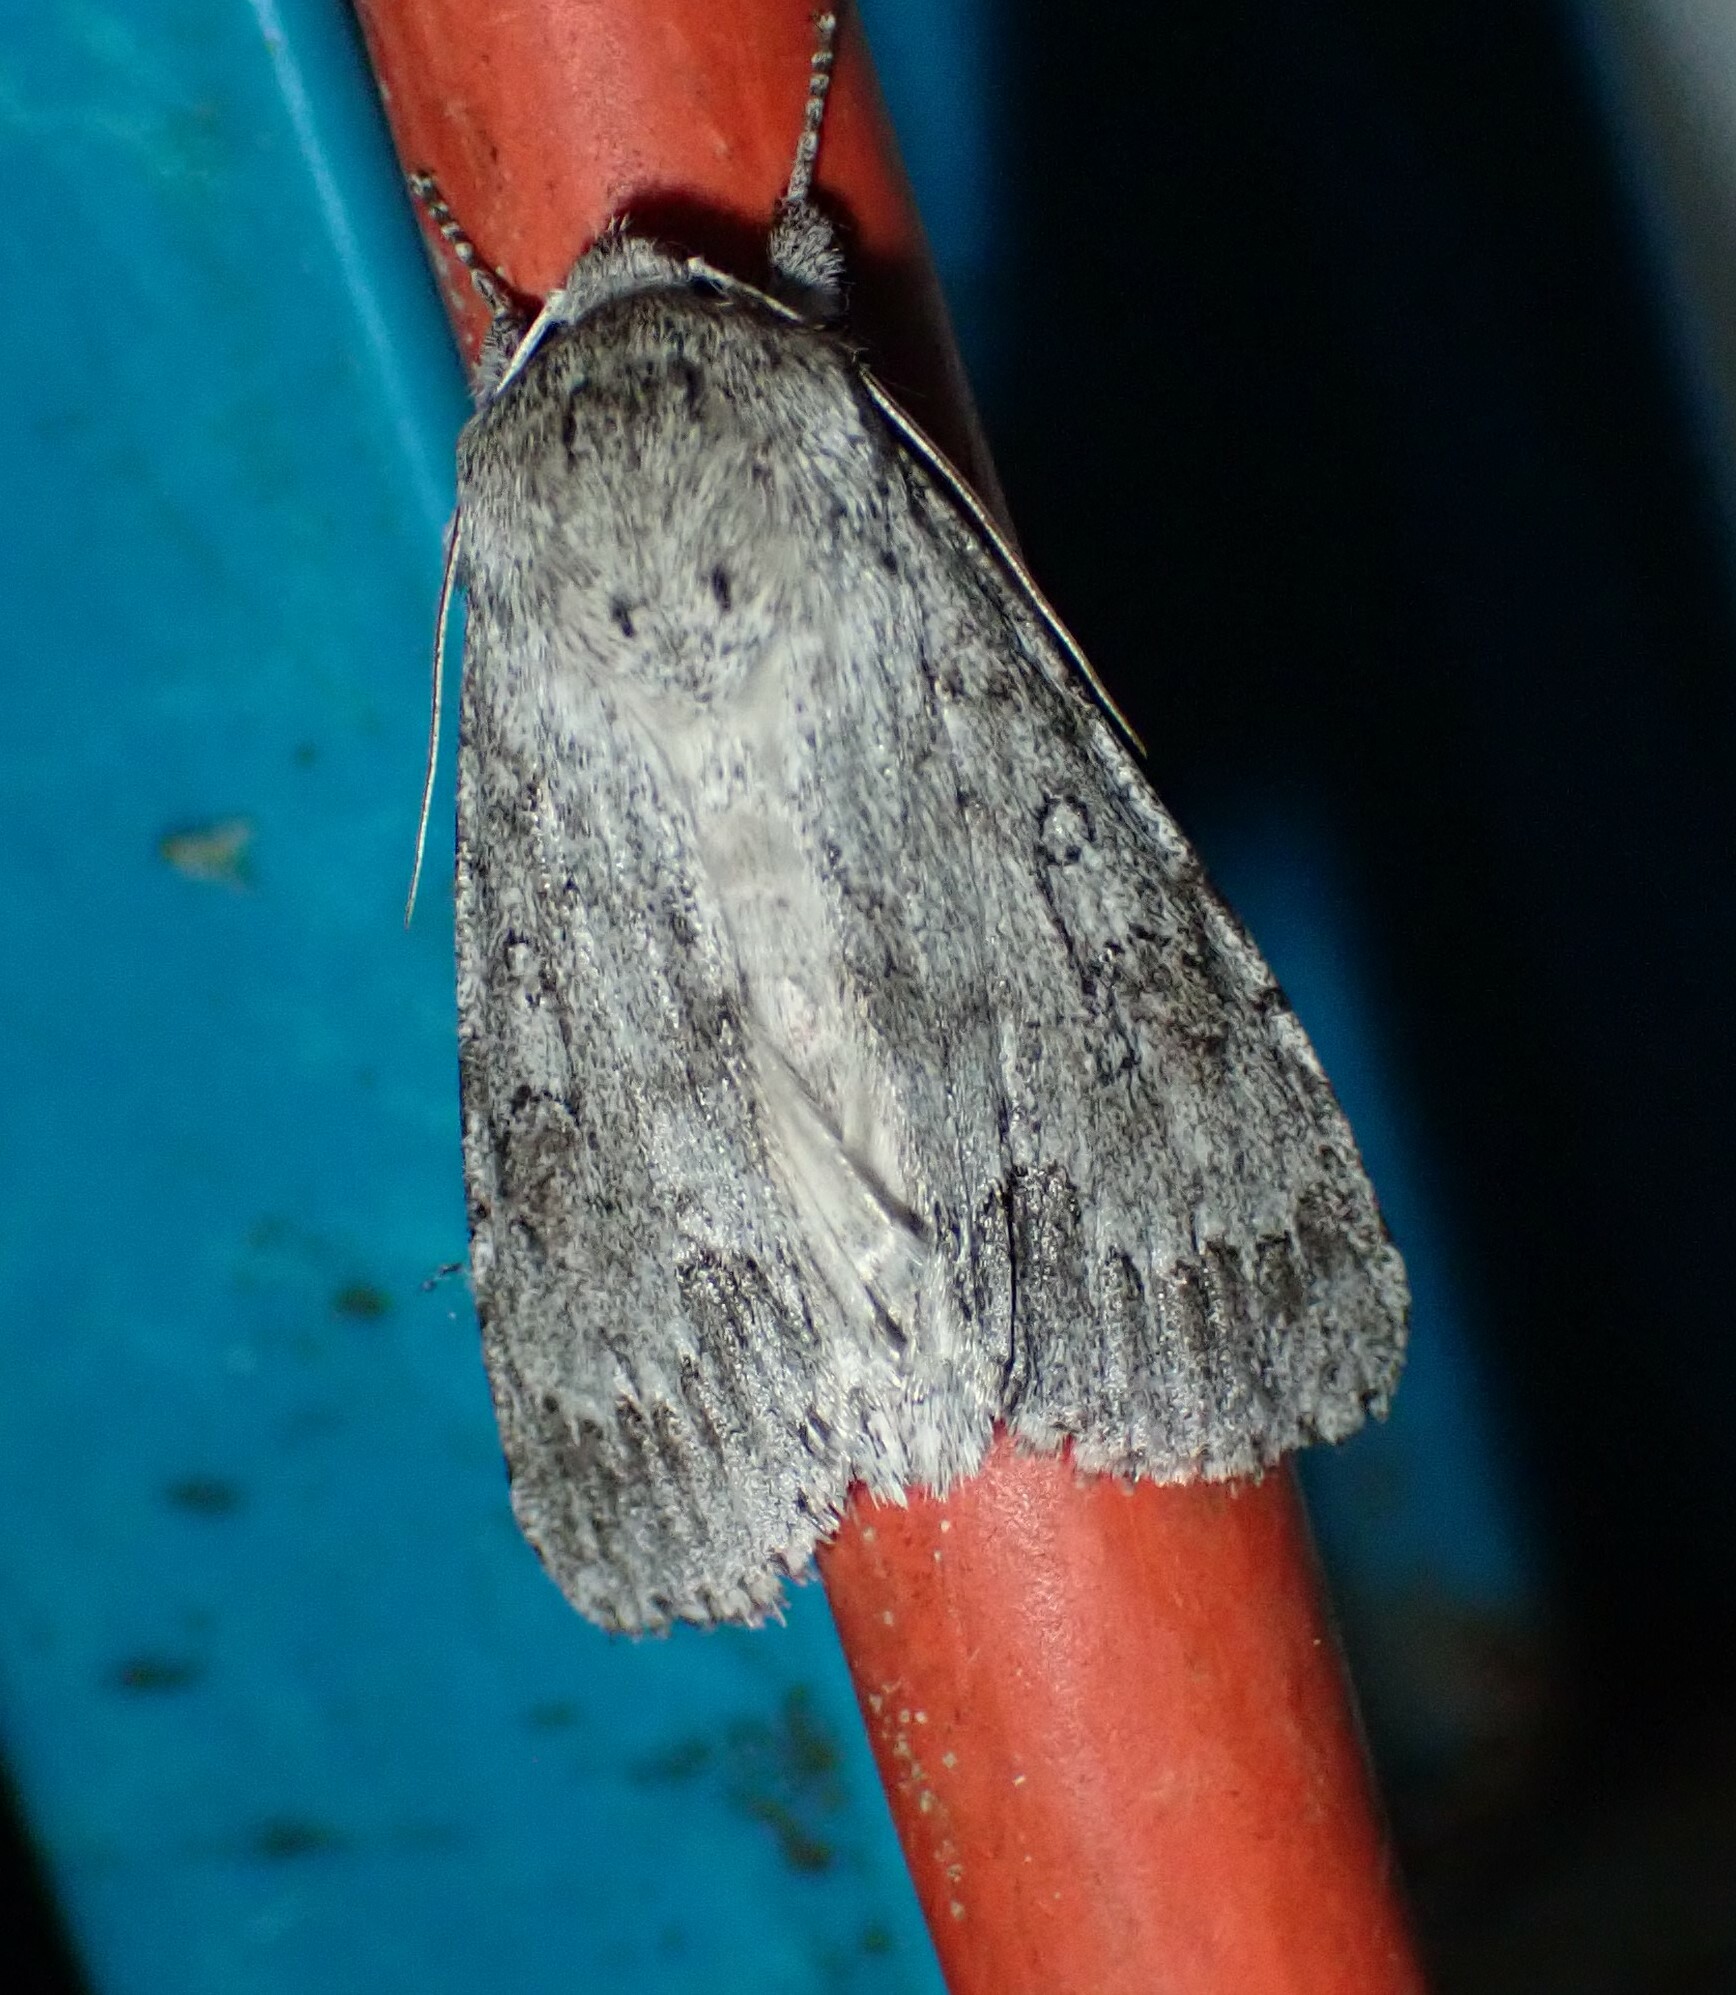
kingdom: Animalia
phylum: Arthropoda
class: Insecta
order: Lepidoptera
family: Noctuidae
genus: Acronicta
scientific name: Acronicta insita
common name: Large gray dagger
